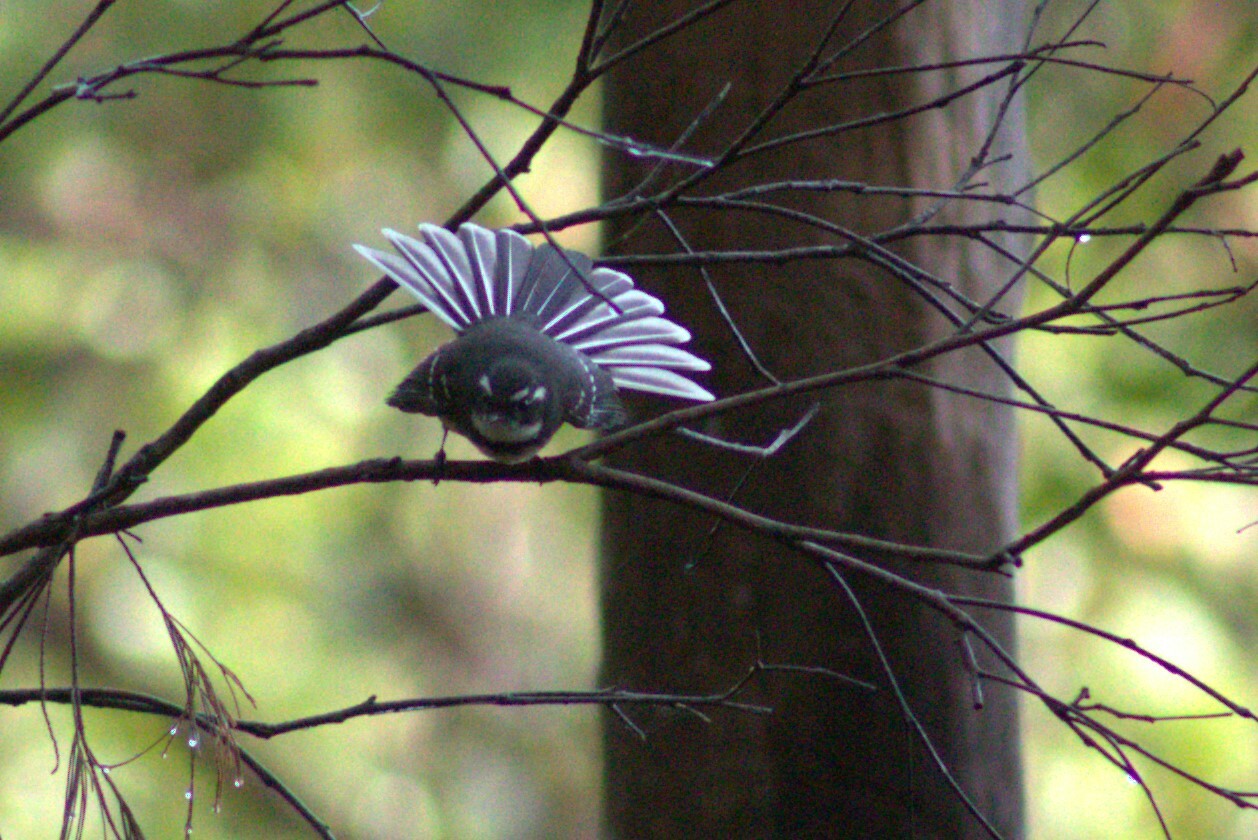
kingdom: Animalia
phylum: Chordata
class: Aves
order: Passeriformes
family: Rhipiduridae
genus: Rhipidura
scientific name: Rhipidura albiscapa
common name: Grey fantail
